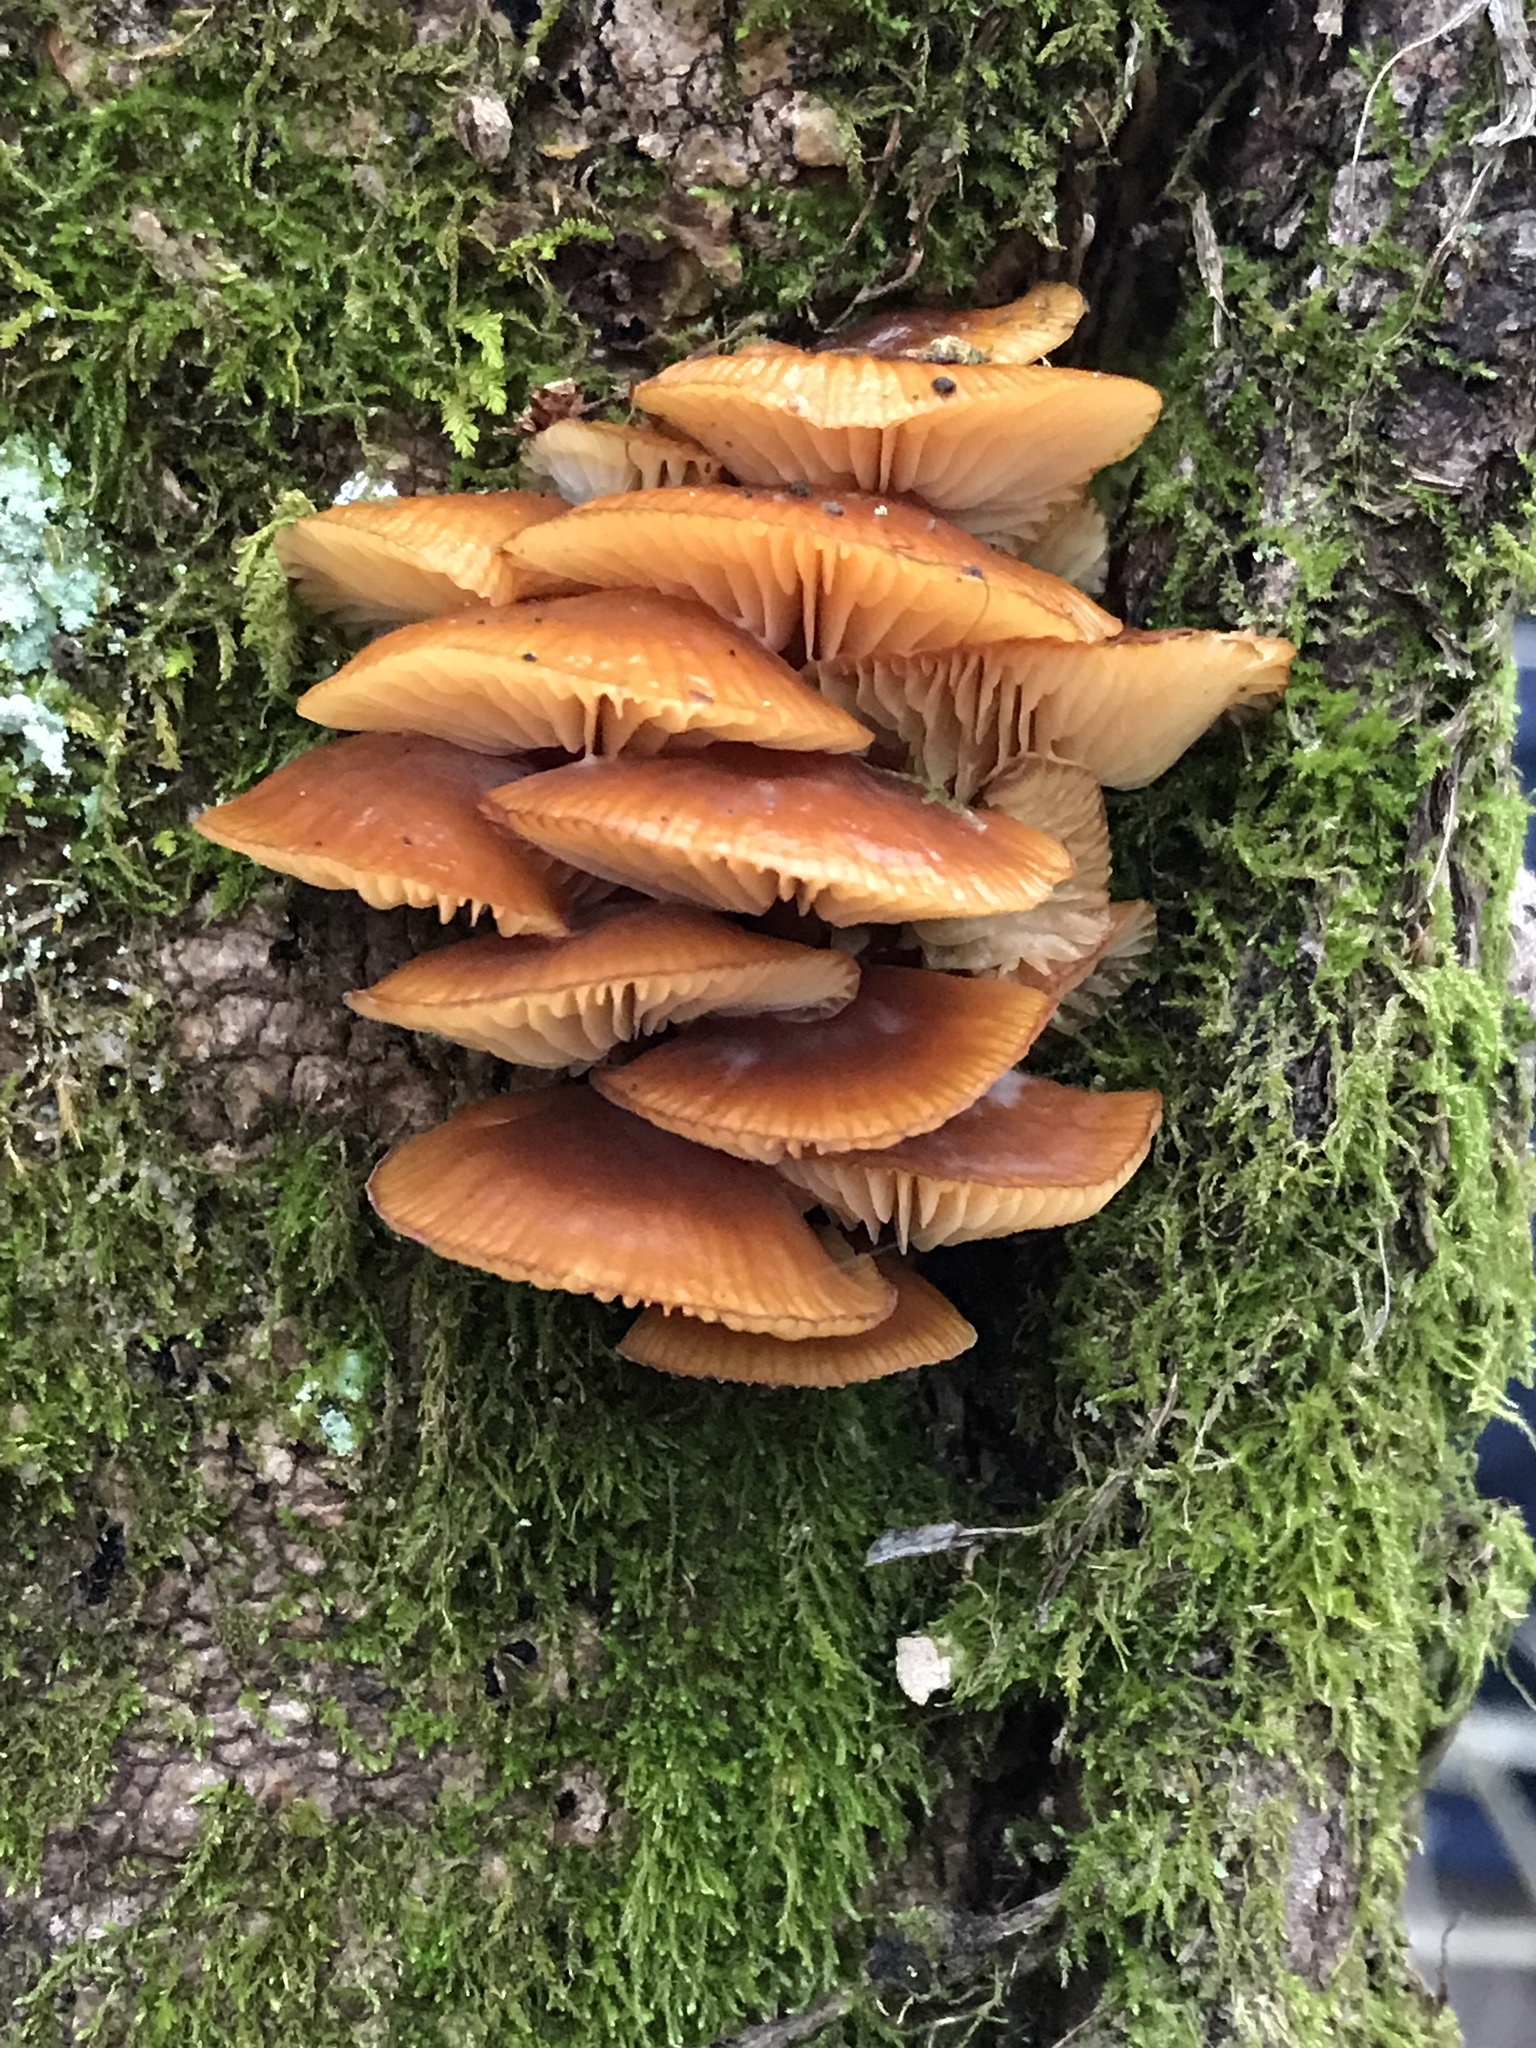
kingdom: Fungi
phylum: Basidiomycota
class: Agaricomycetes
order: Agaricales
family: Physalacriaceae
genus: Flammulina
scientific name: Flammulina velutipes
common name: Velvet shank
